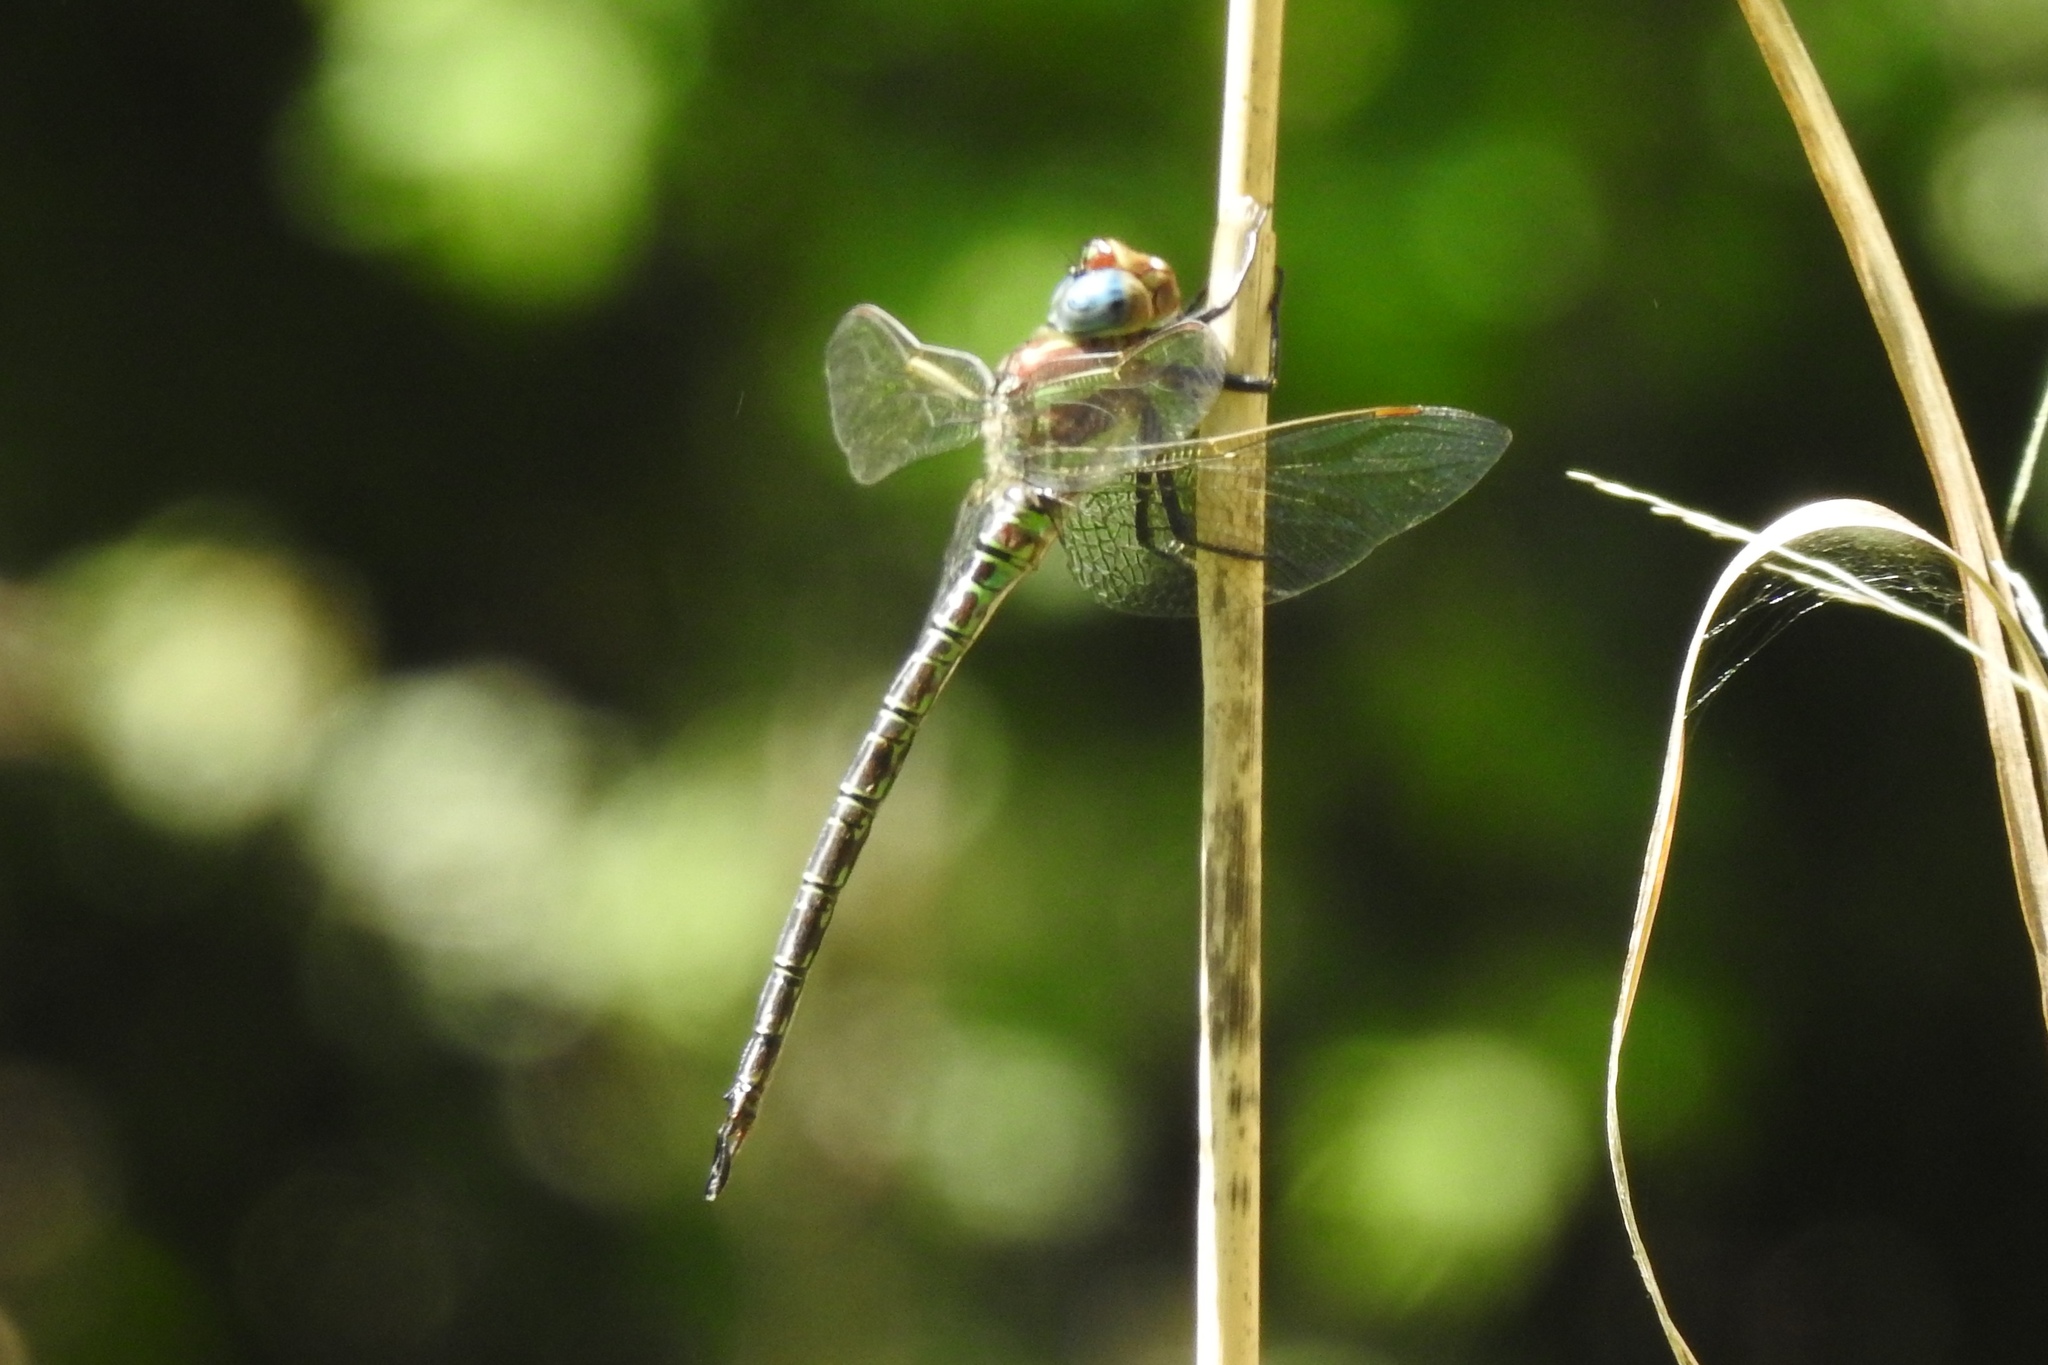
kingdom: Animalia
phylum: Arthropoda
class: Insecta
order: Odonata
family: Aeshnidae
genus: Epiaeschna
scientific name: Epiaeschna heros
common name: Swamp darner
